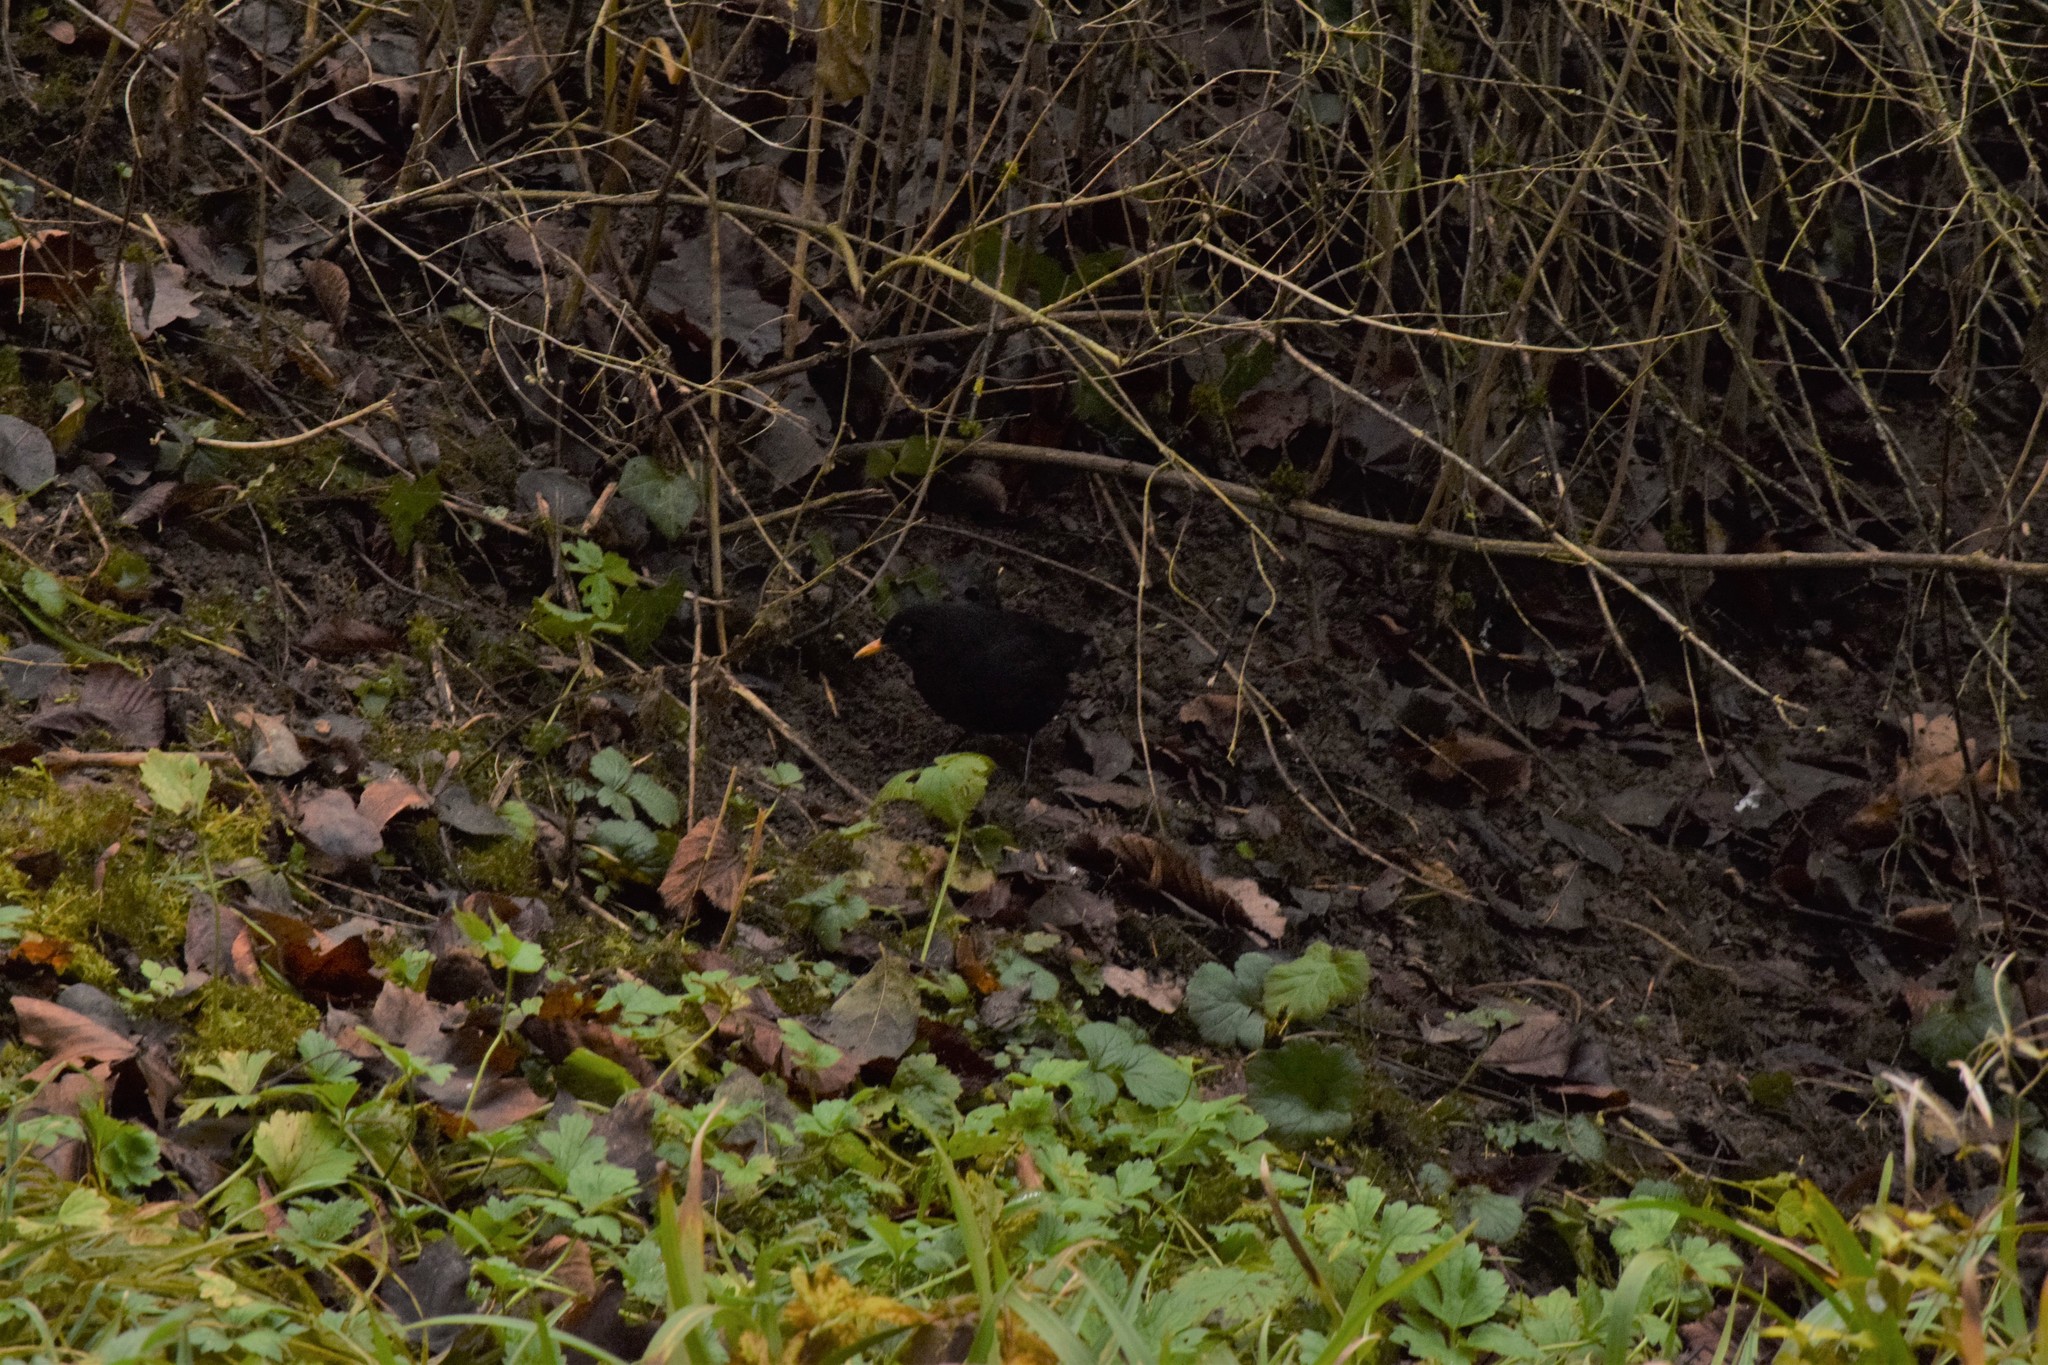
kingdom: Animalia
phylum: Chordata
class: Aves
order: Passeriformes
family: Turdidae
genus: Turdus
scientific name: Turdus merula
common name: Common blackbird
